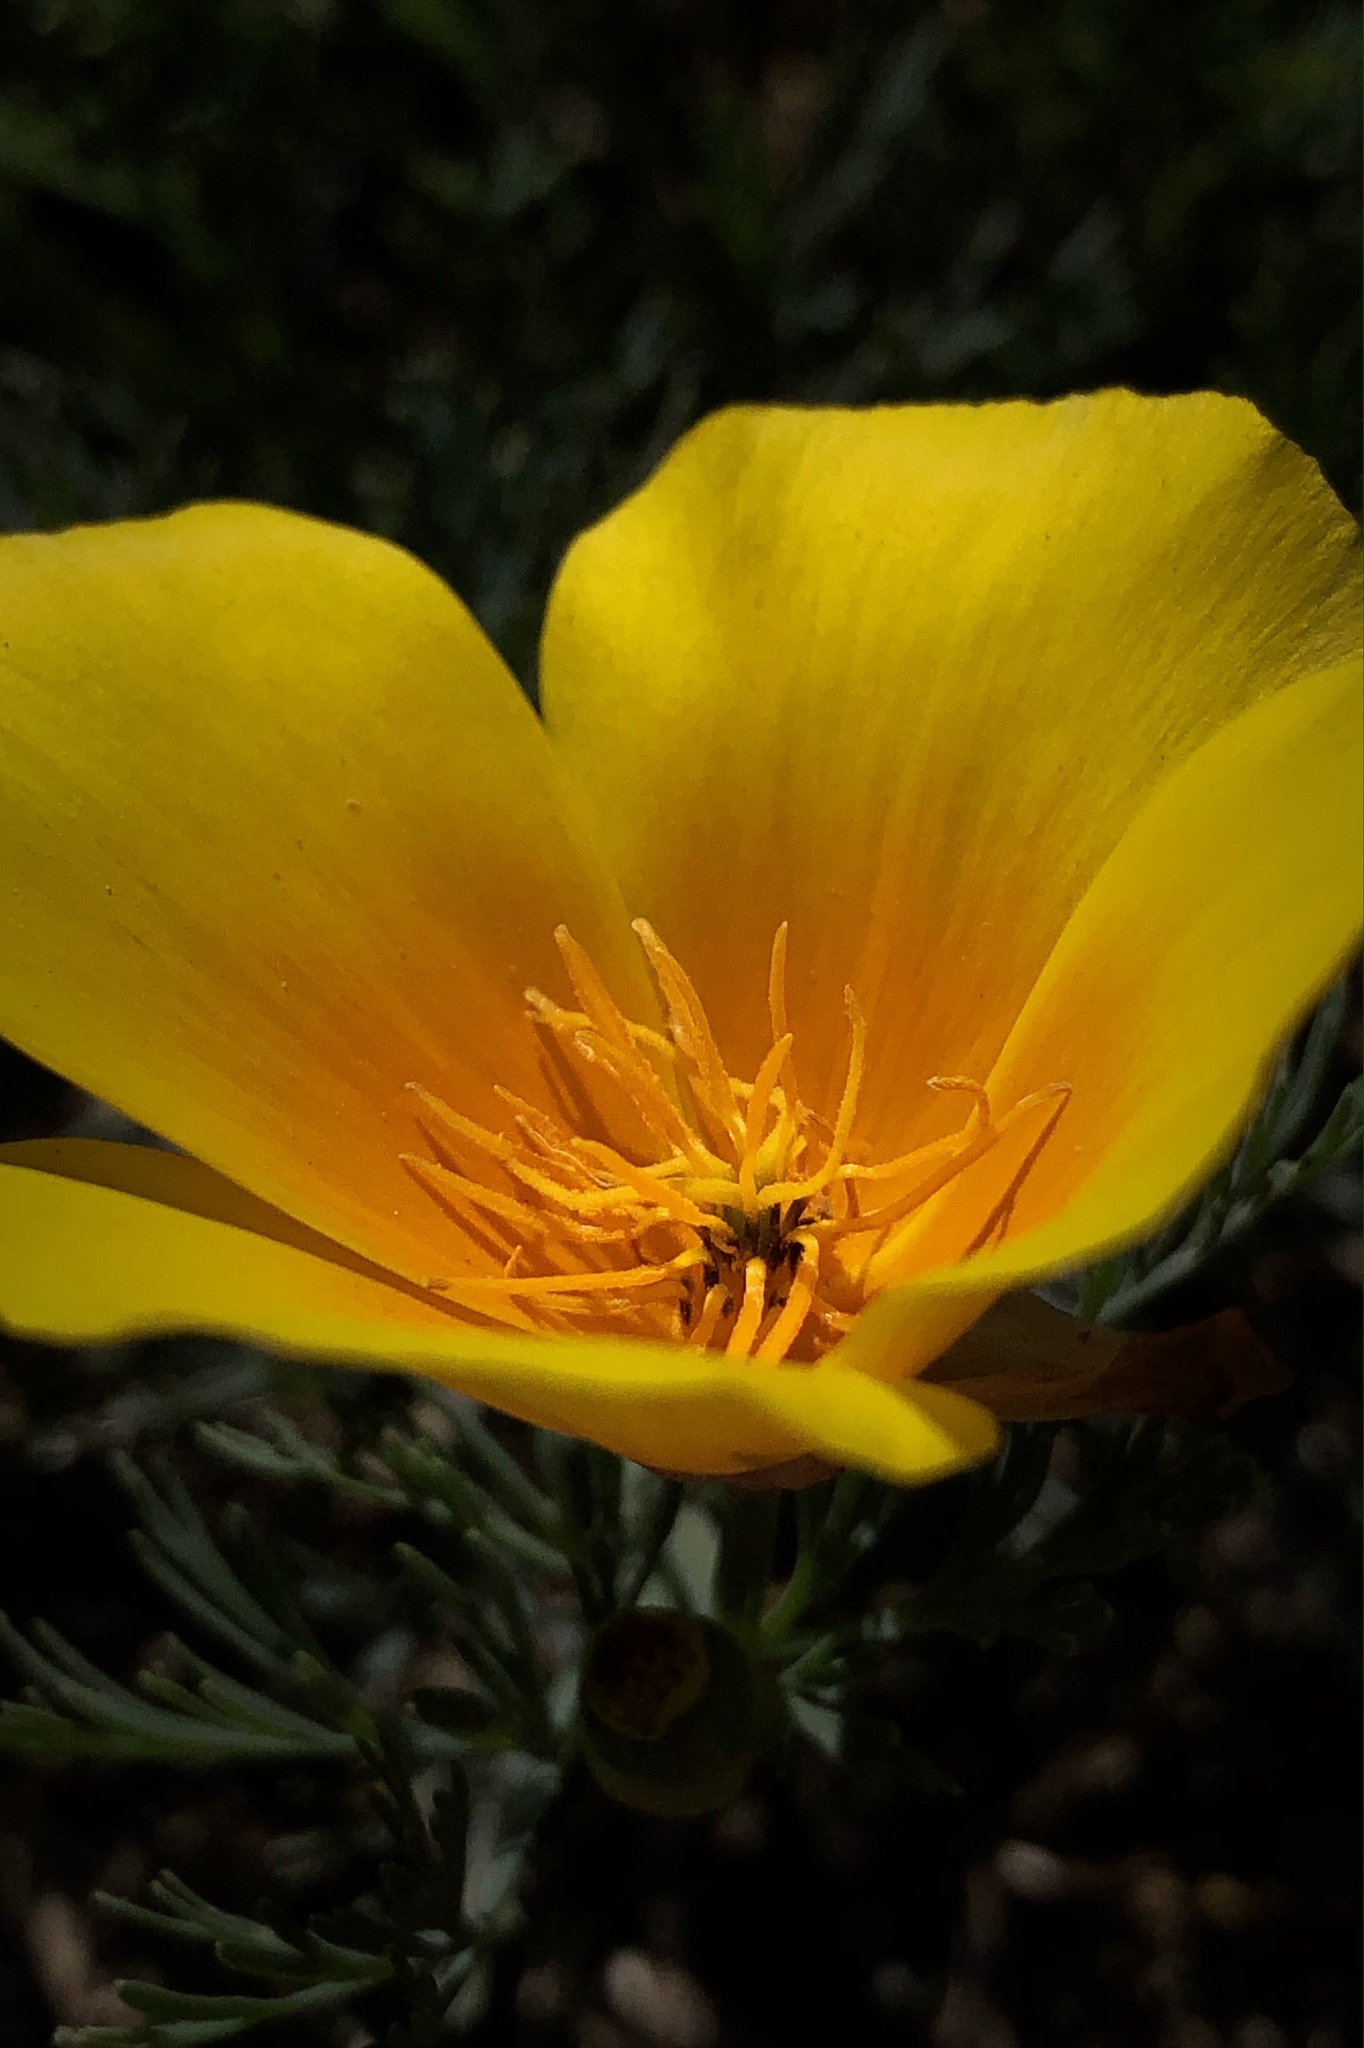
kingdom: Plantae
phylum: Tracheophyta
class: Magnoliopsida
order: Ranunculales
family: Papaveraceae
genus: Eschscholzia
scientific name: Eschscholzia californica
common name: California poppy
